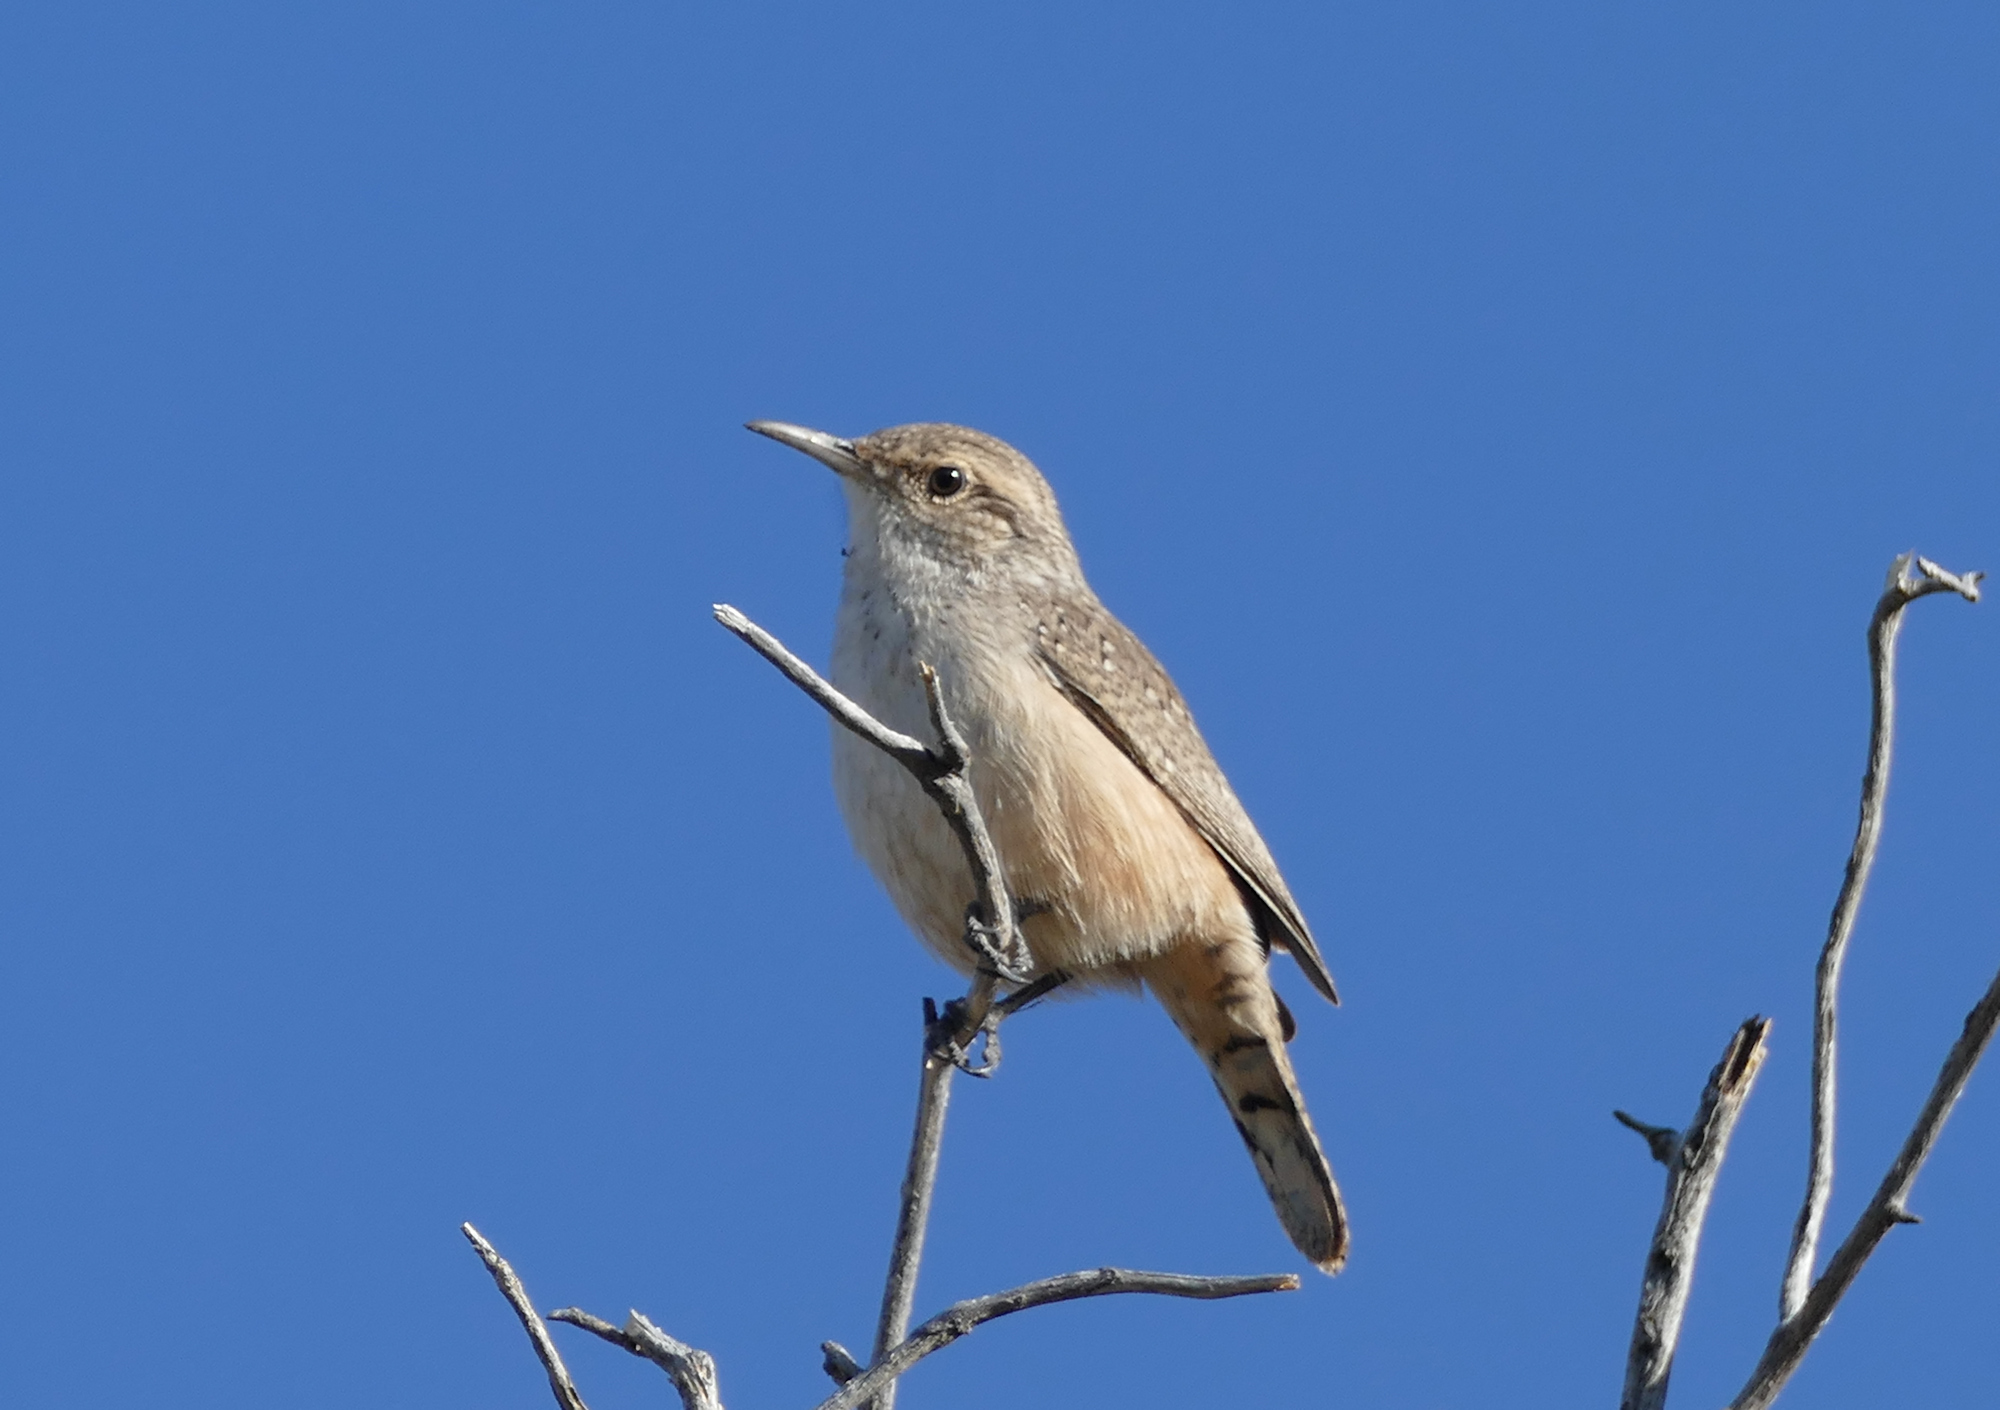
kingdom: Animalia
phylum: Chordata
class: Aves
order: Passeriformes
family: Troglodytidae
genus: Salpinctes
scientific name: Salpinctes obsoletus
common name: Rock wren
